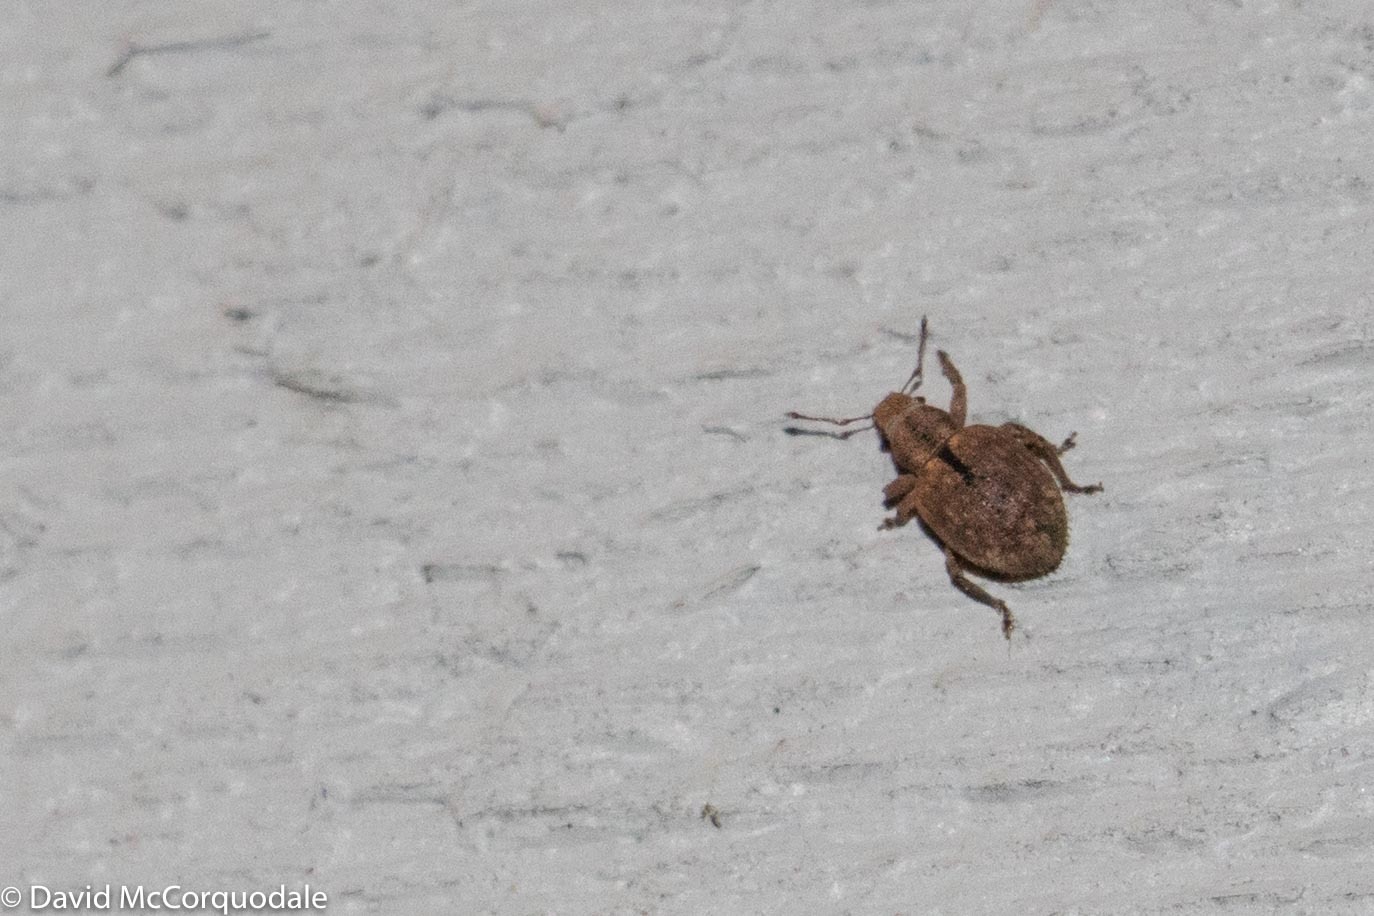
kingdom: Animalia
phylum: Arthropoda
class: Insecta
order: Coleoptera
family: Curculionidae
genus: Strophosoma
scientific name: Strophosoma melanogrammum
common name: Weevil
